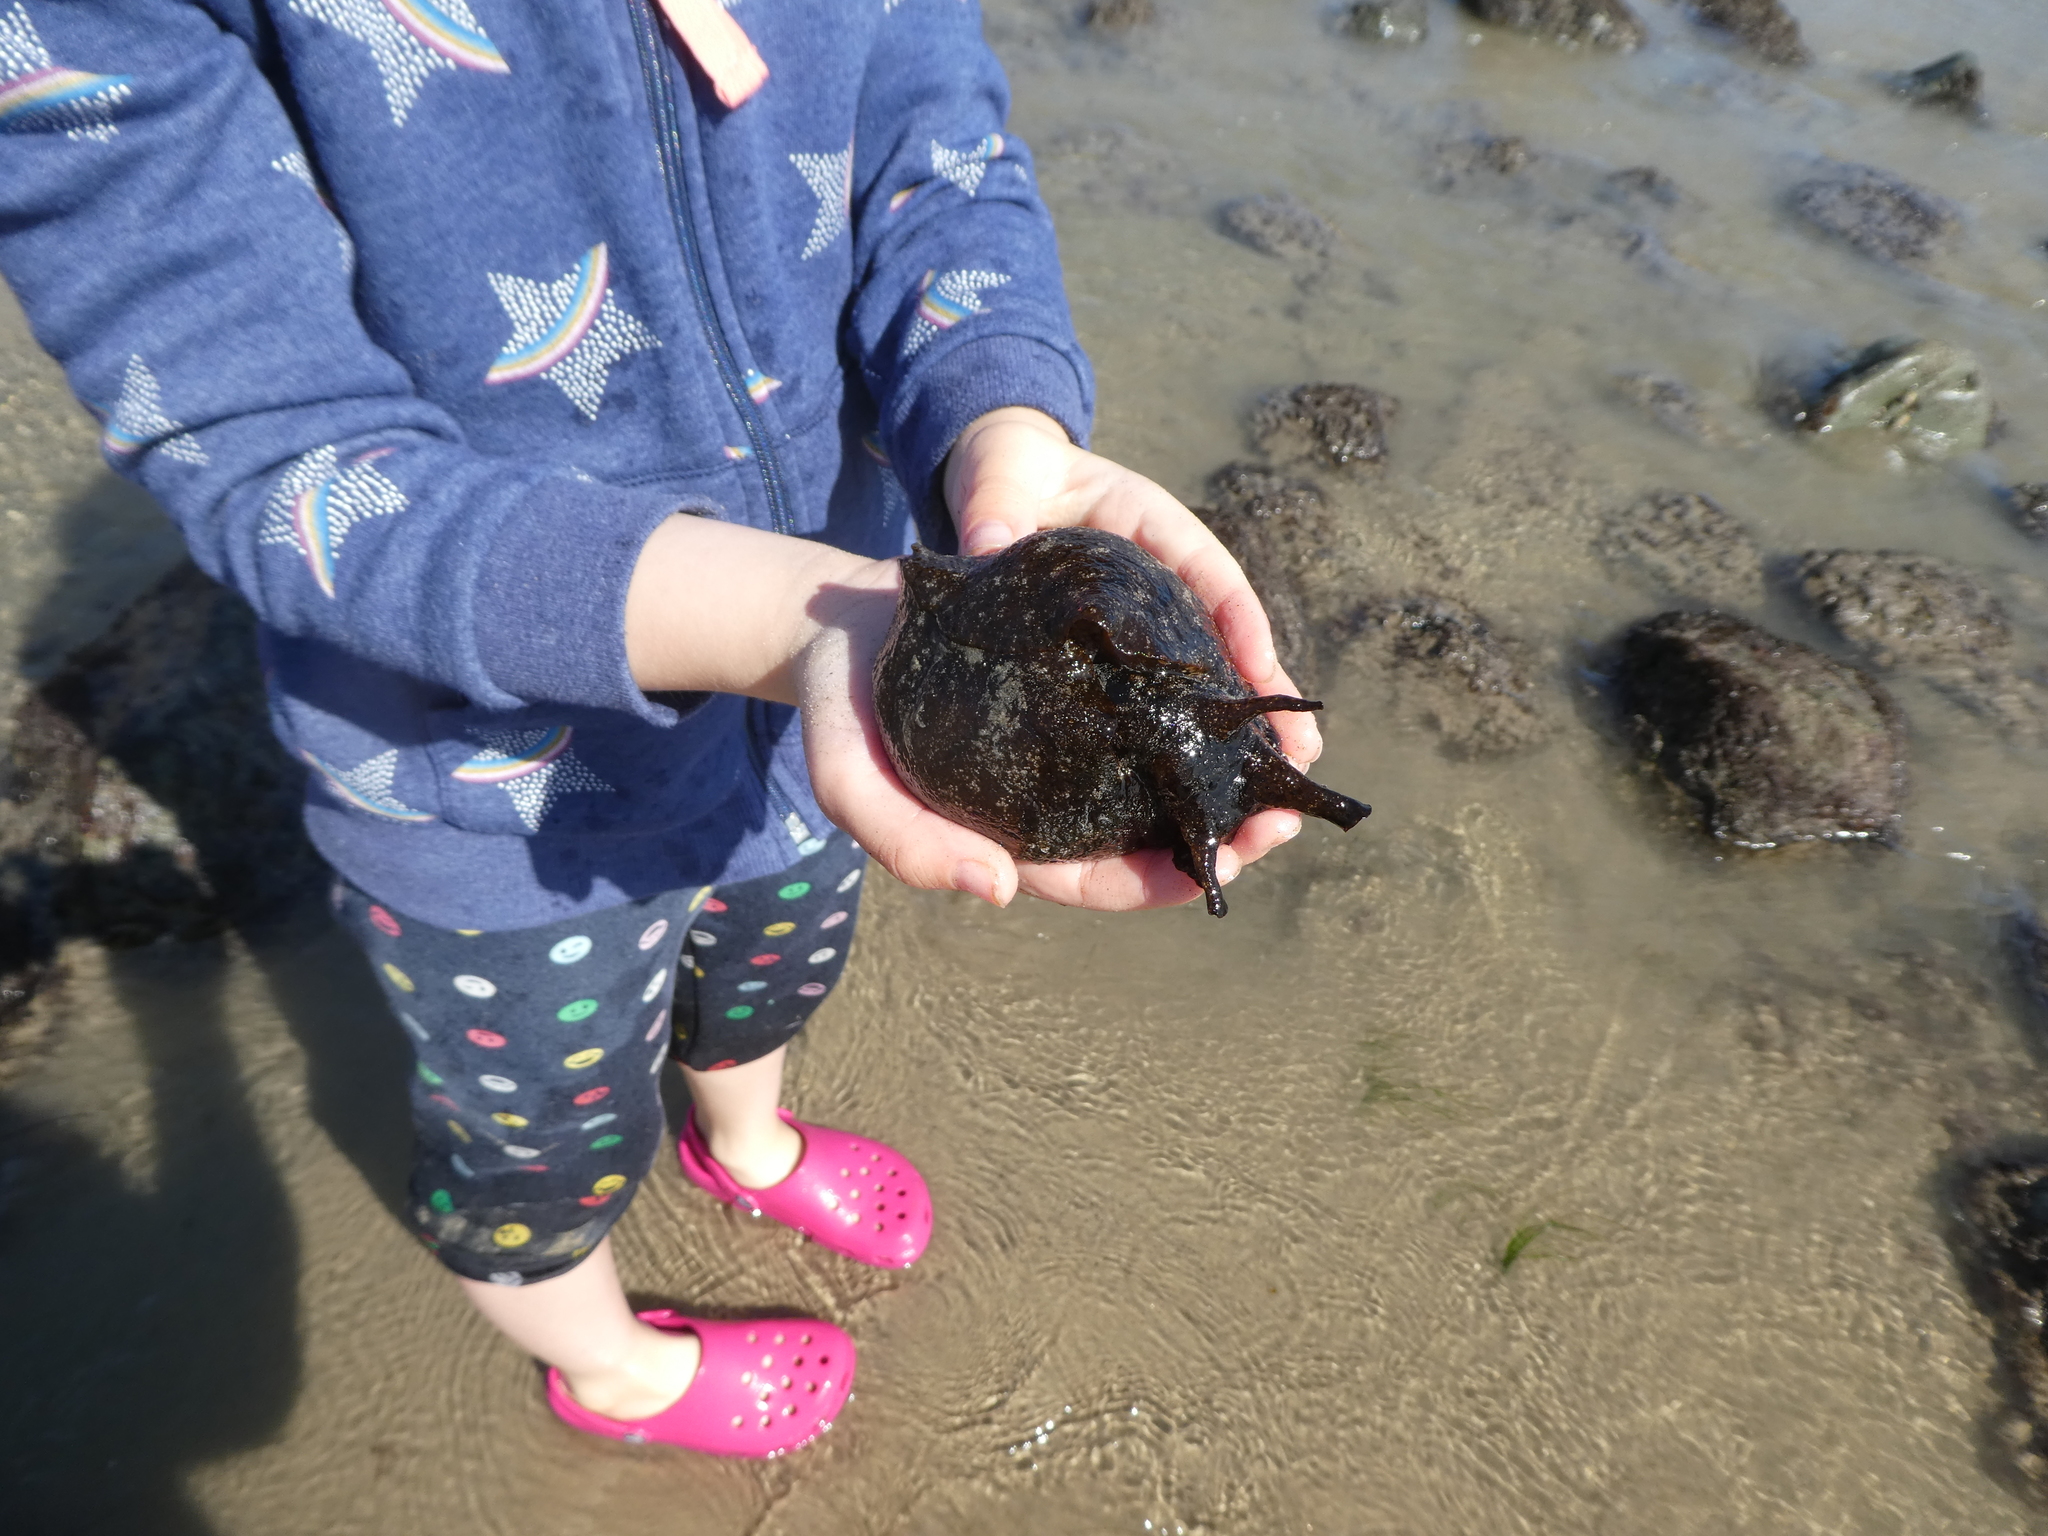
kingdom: Animalia
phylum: Mollusca
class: Gastropoda
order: Aplysiida
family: Aplysiidae
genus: Aplysia
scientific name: Aplysia vaccaria
